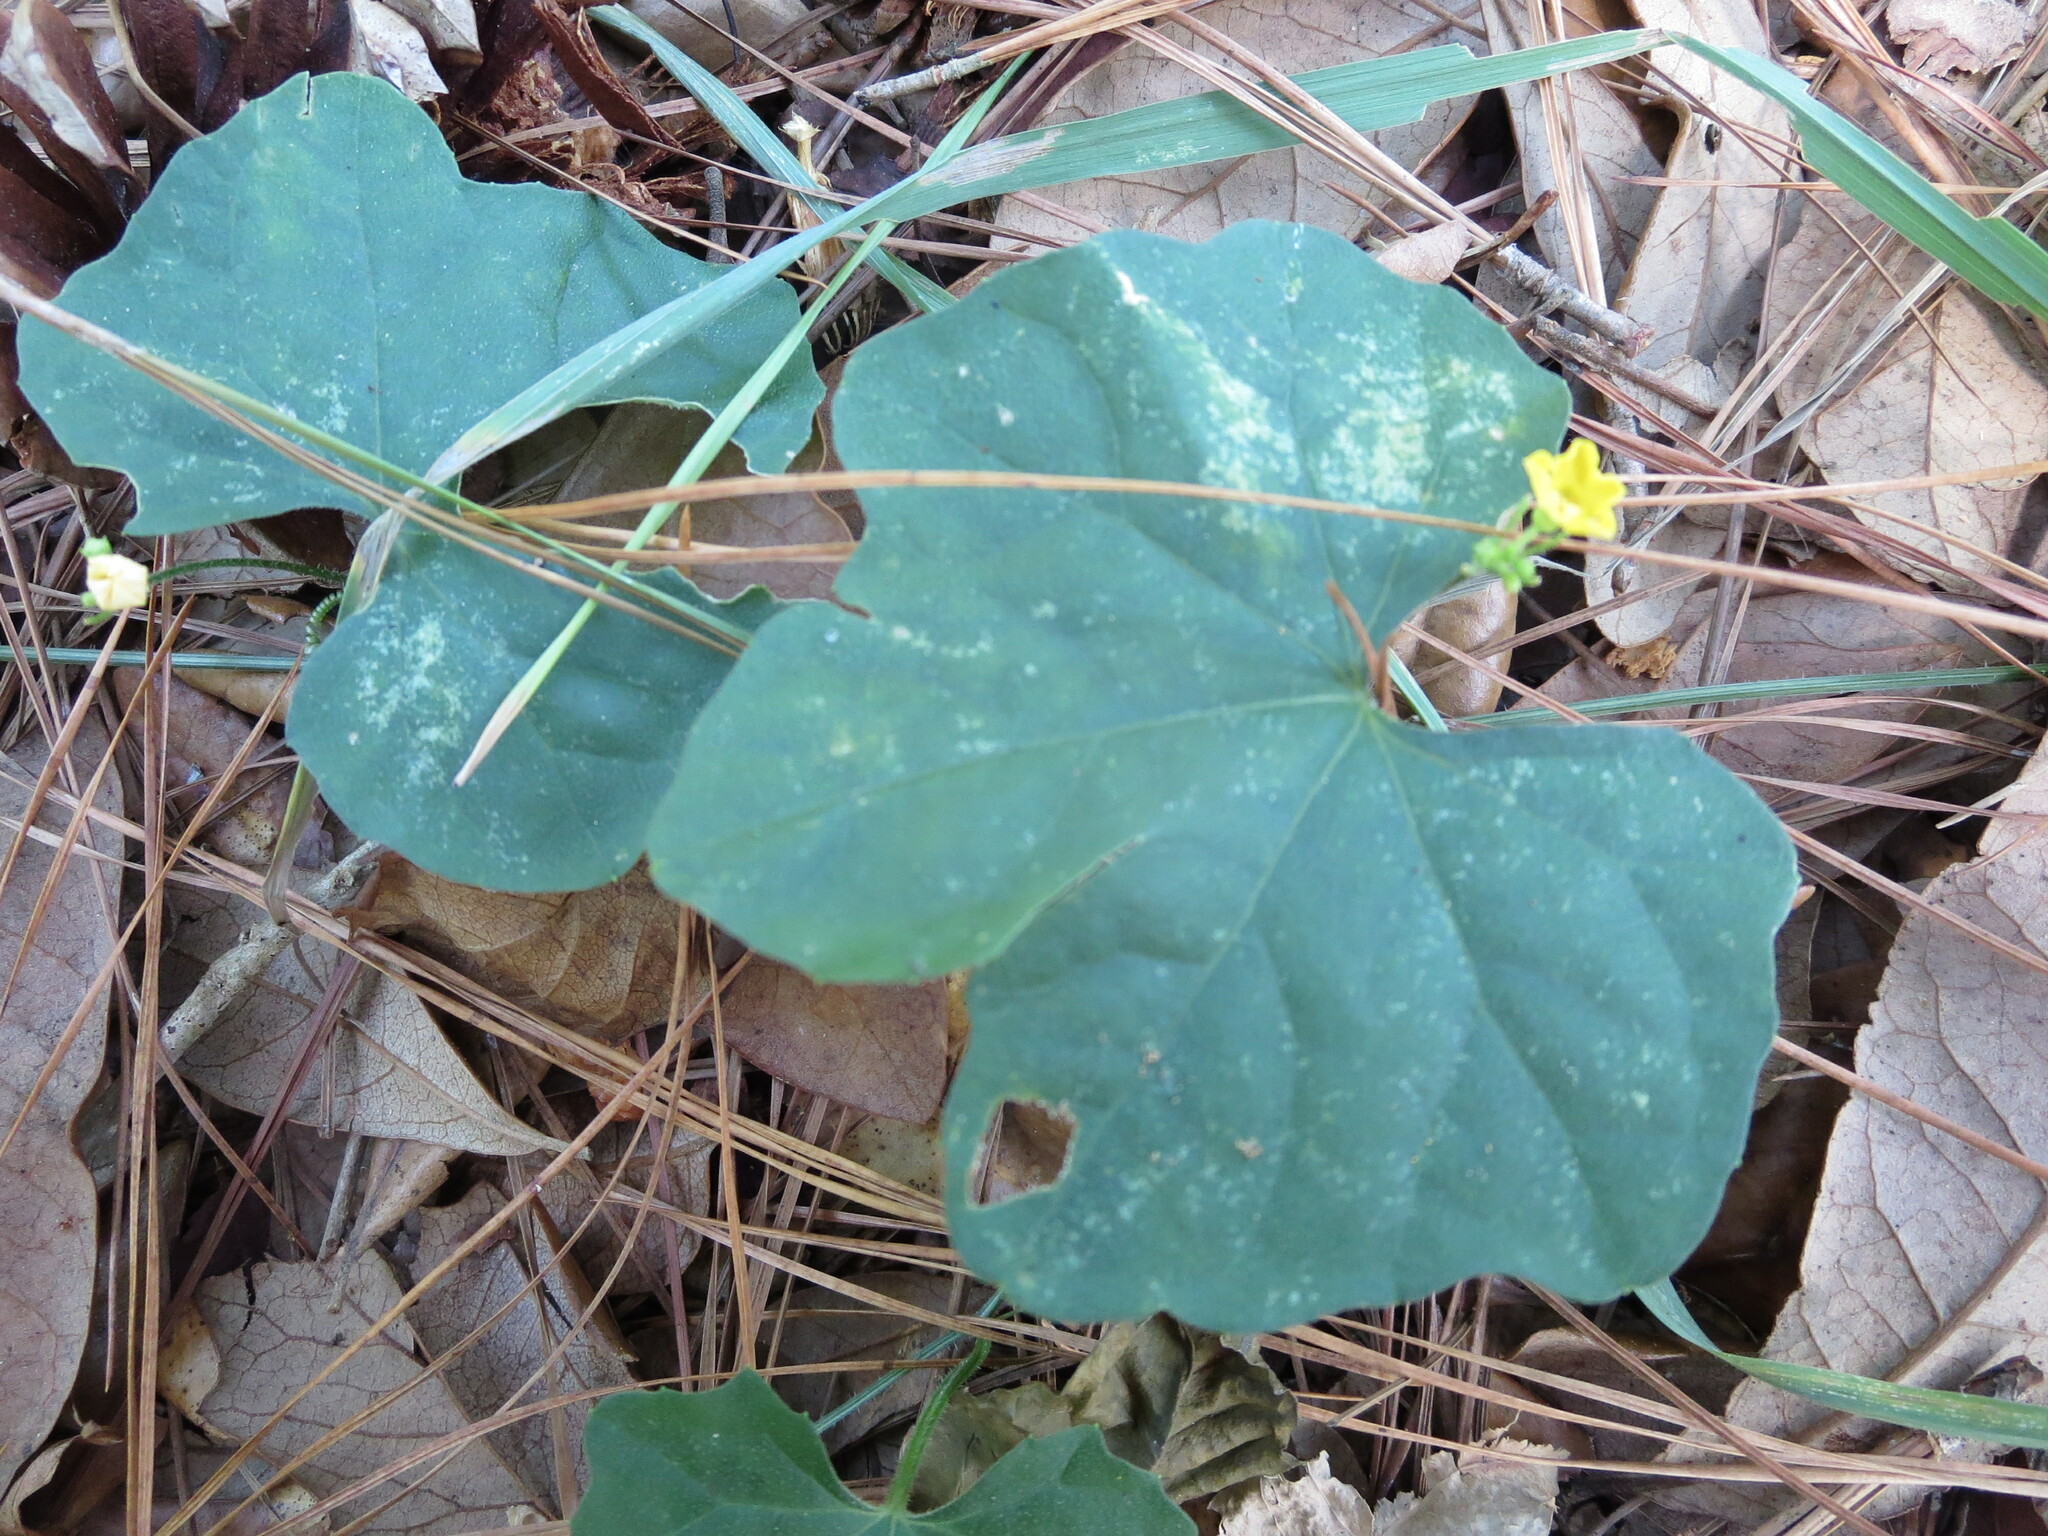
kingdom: Plantae
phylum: Tracheophyta
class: Magnoliopsida
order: Cucurbitales
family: Cucurbitaceae
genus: Melothria
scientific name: Melothria pendula
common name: Creeping-cucumber
